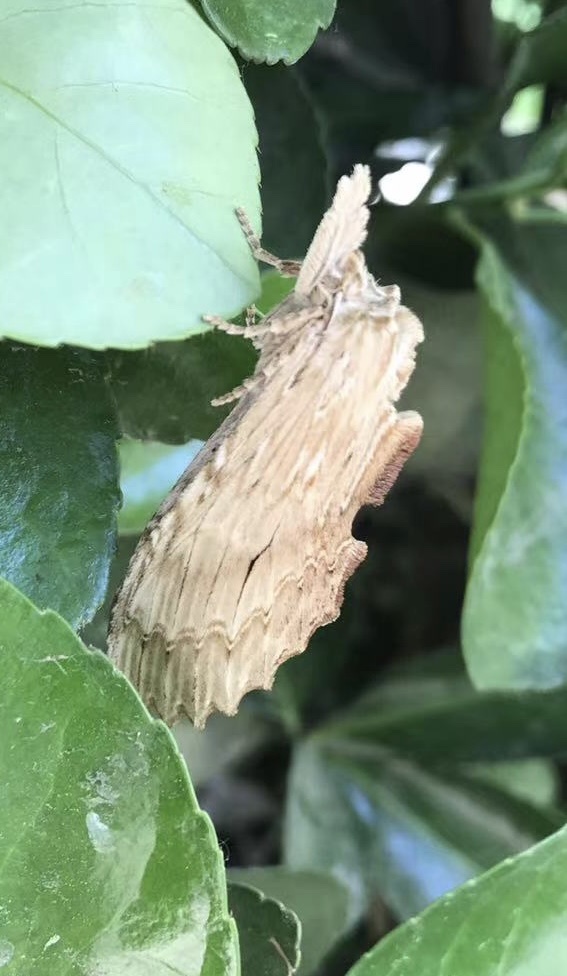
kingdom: Animalia
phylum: Arthropoda
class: Insecta
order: Lepidoptera
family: Notodontidae
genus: Pterostoma
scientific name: Pterostoma sinica
